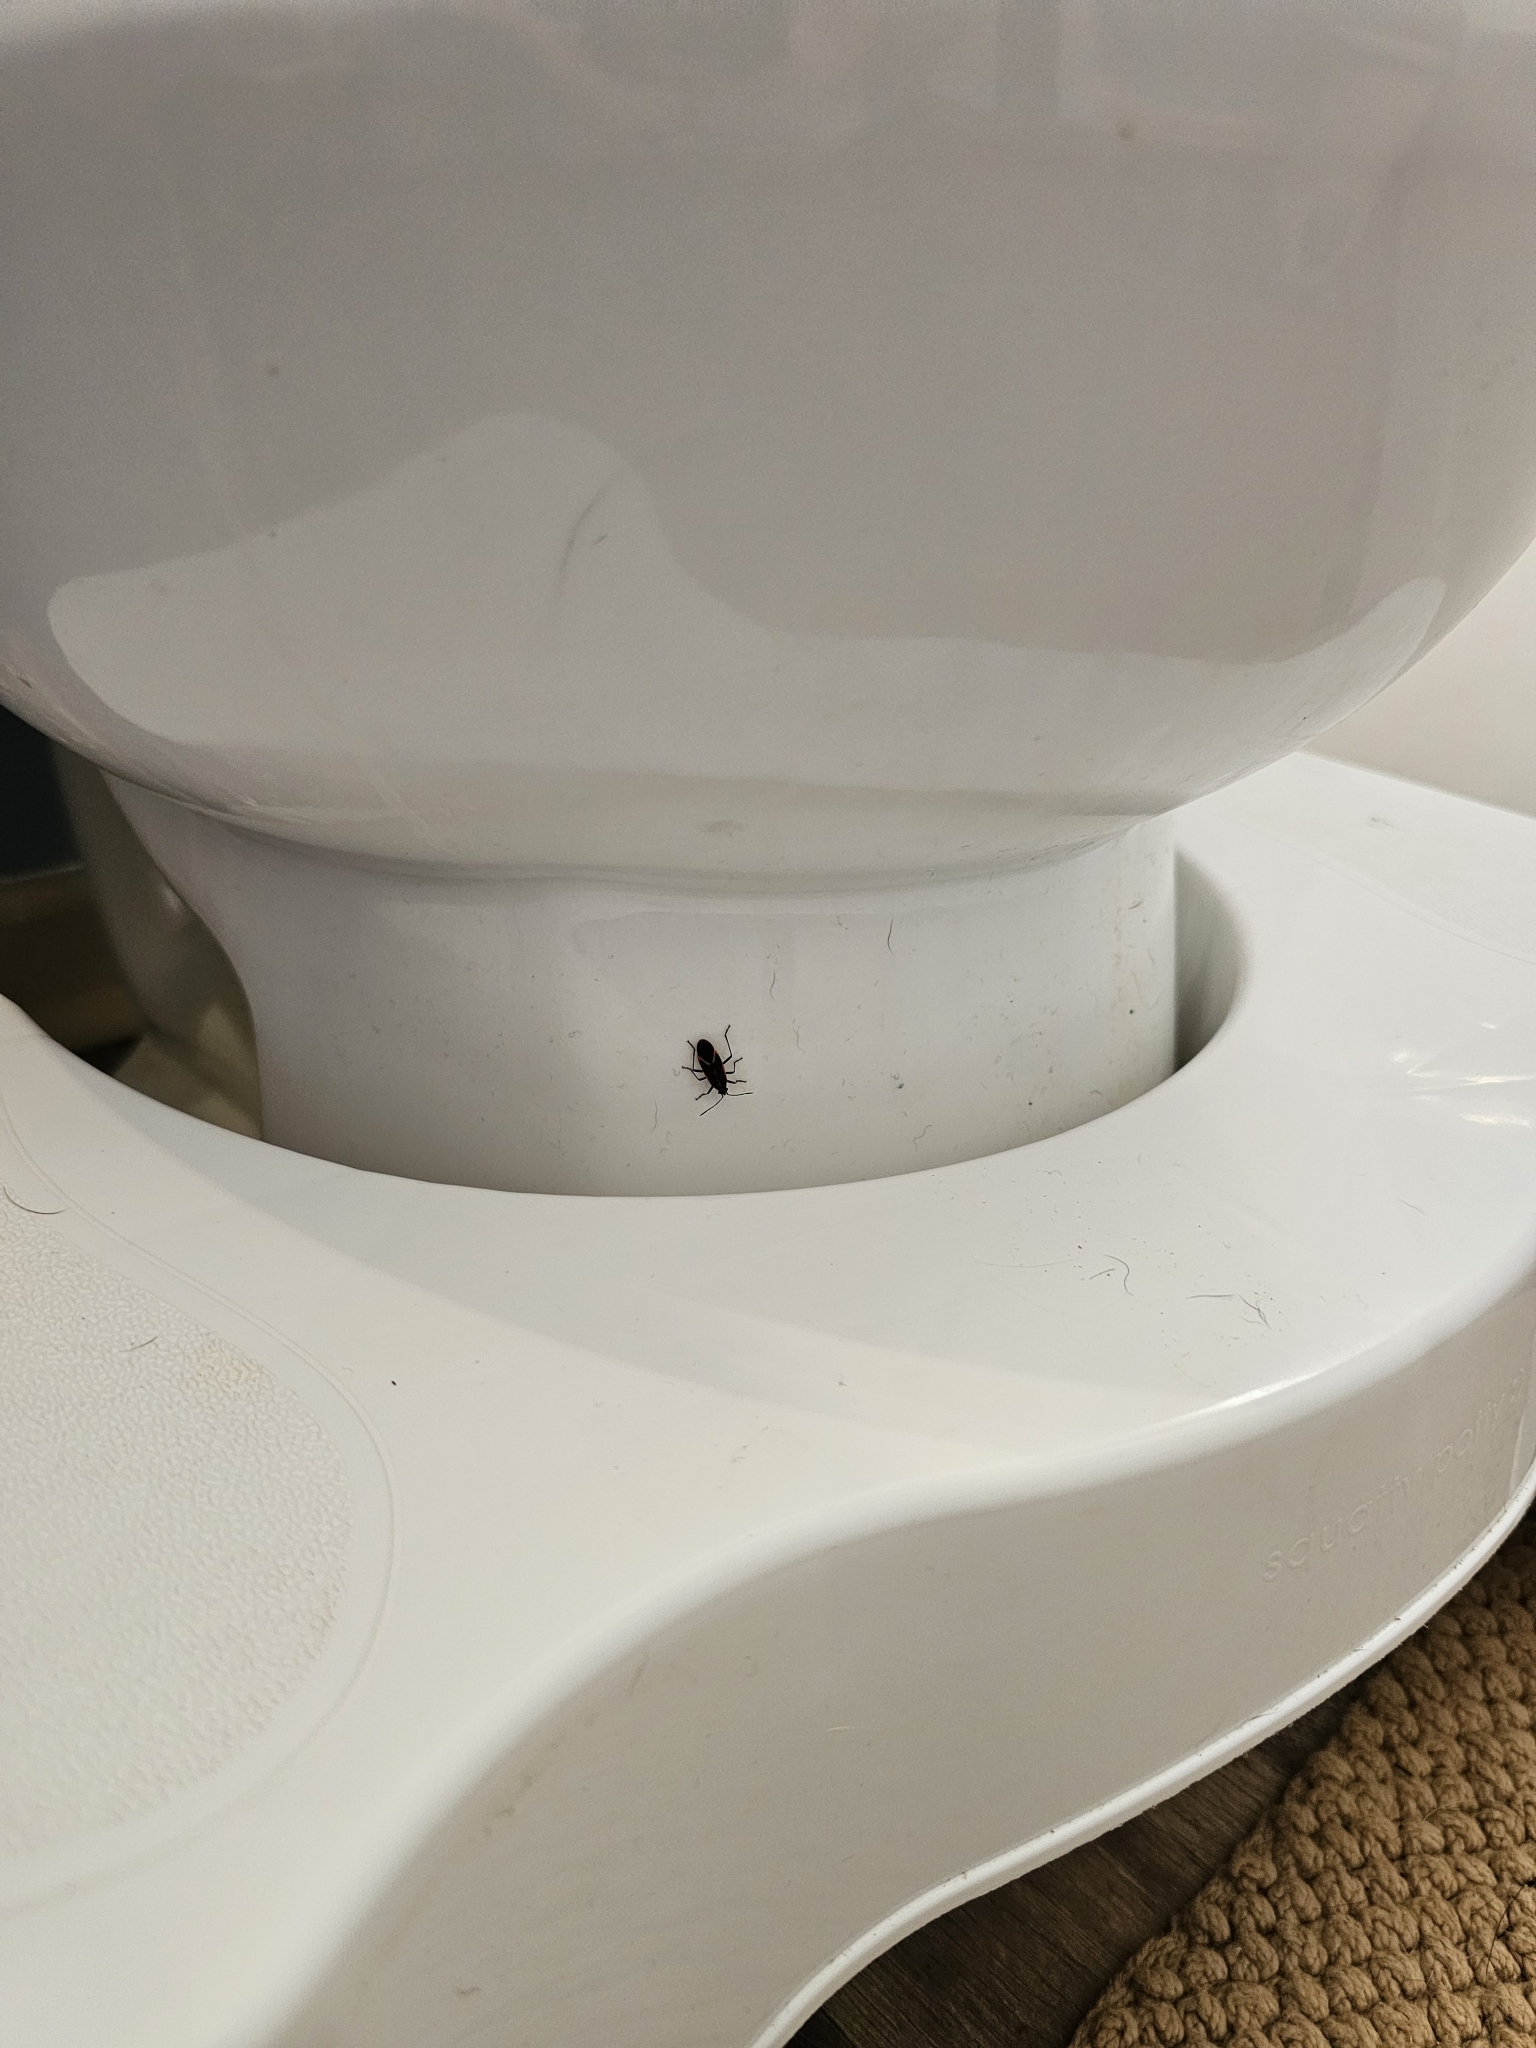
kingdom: Animalia
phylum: Arthropoda
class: Insecta
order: Hemiptera
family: Rhopalidae
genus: Boisea
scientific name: Boisea trivittata
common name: Boxelder bug
